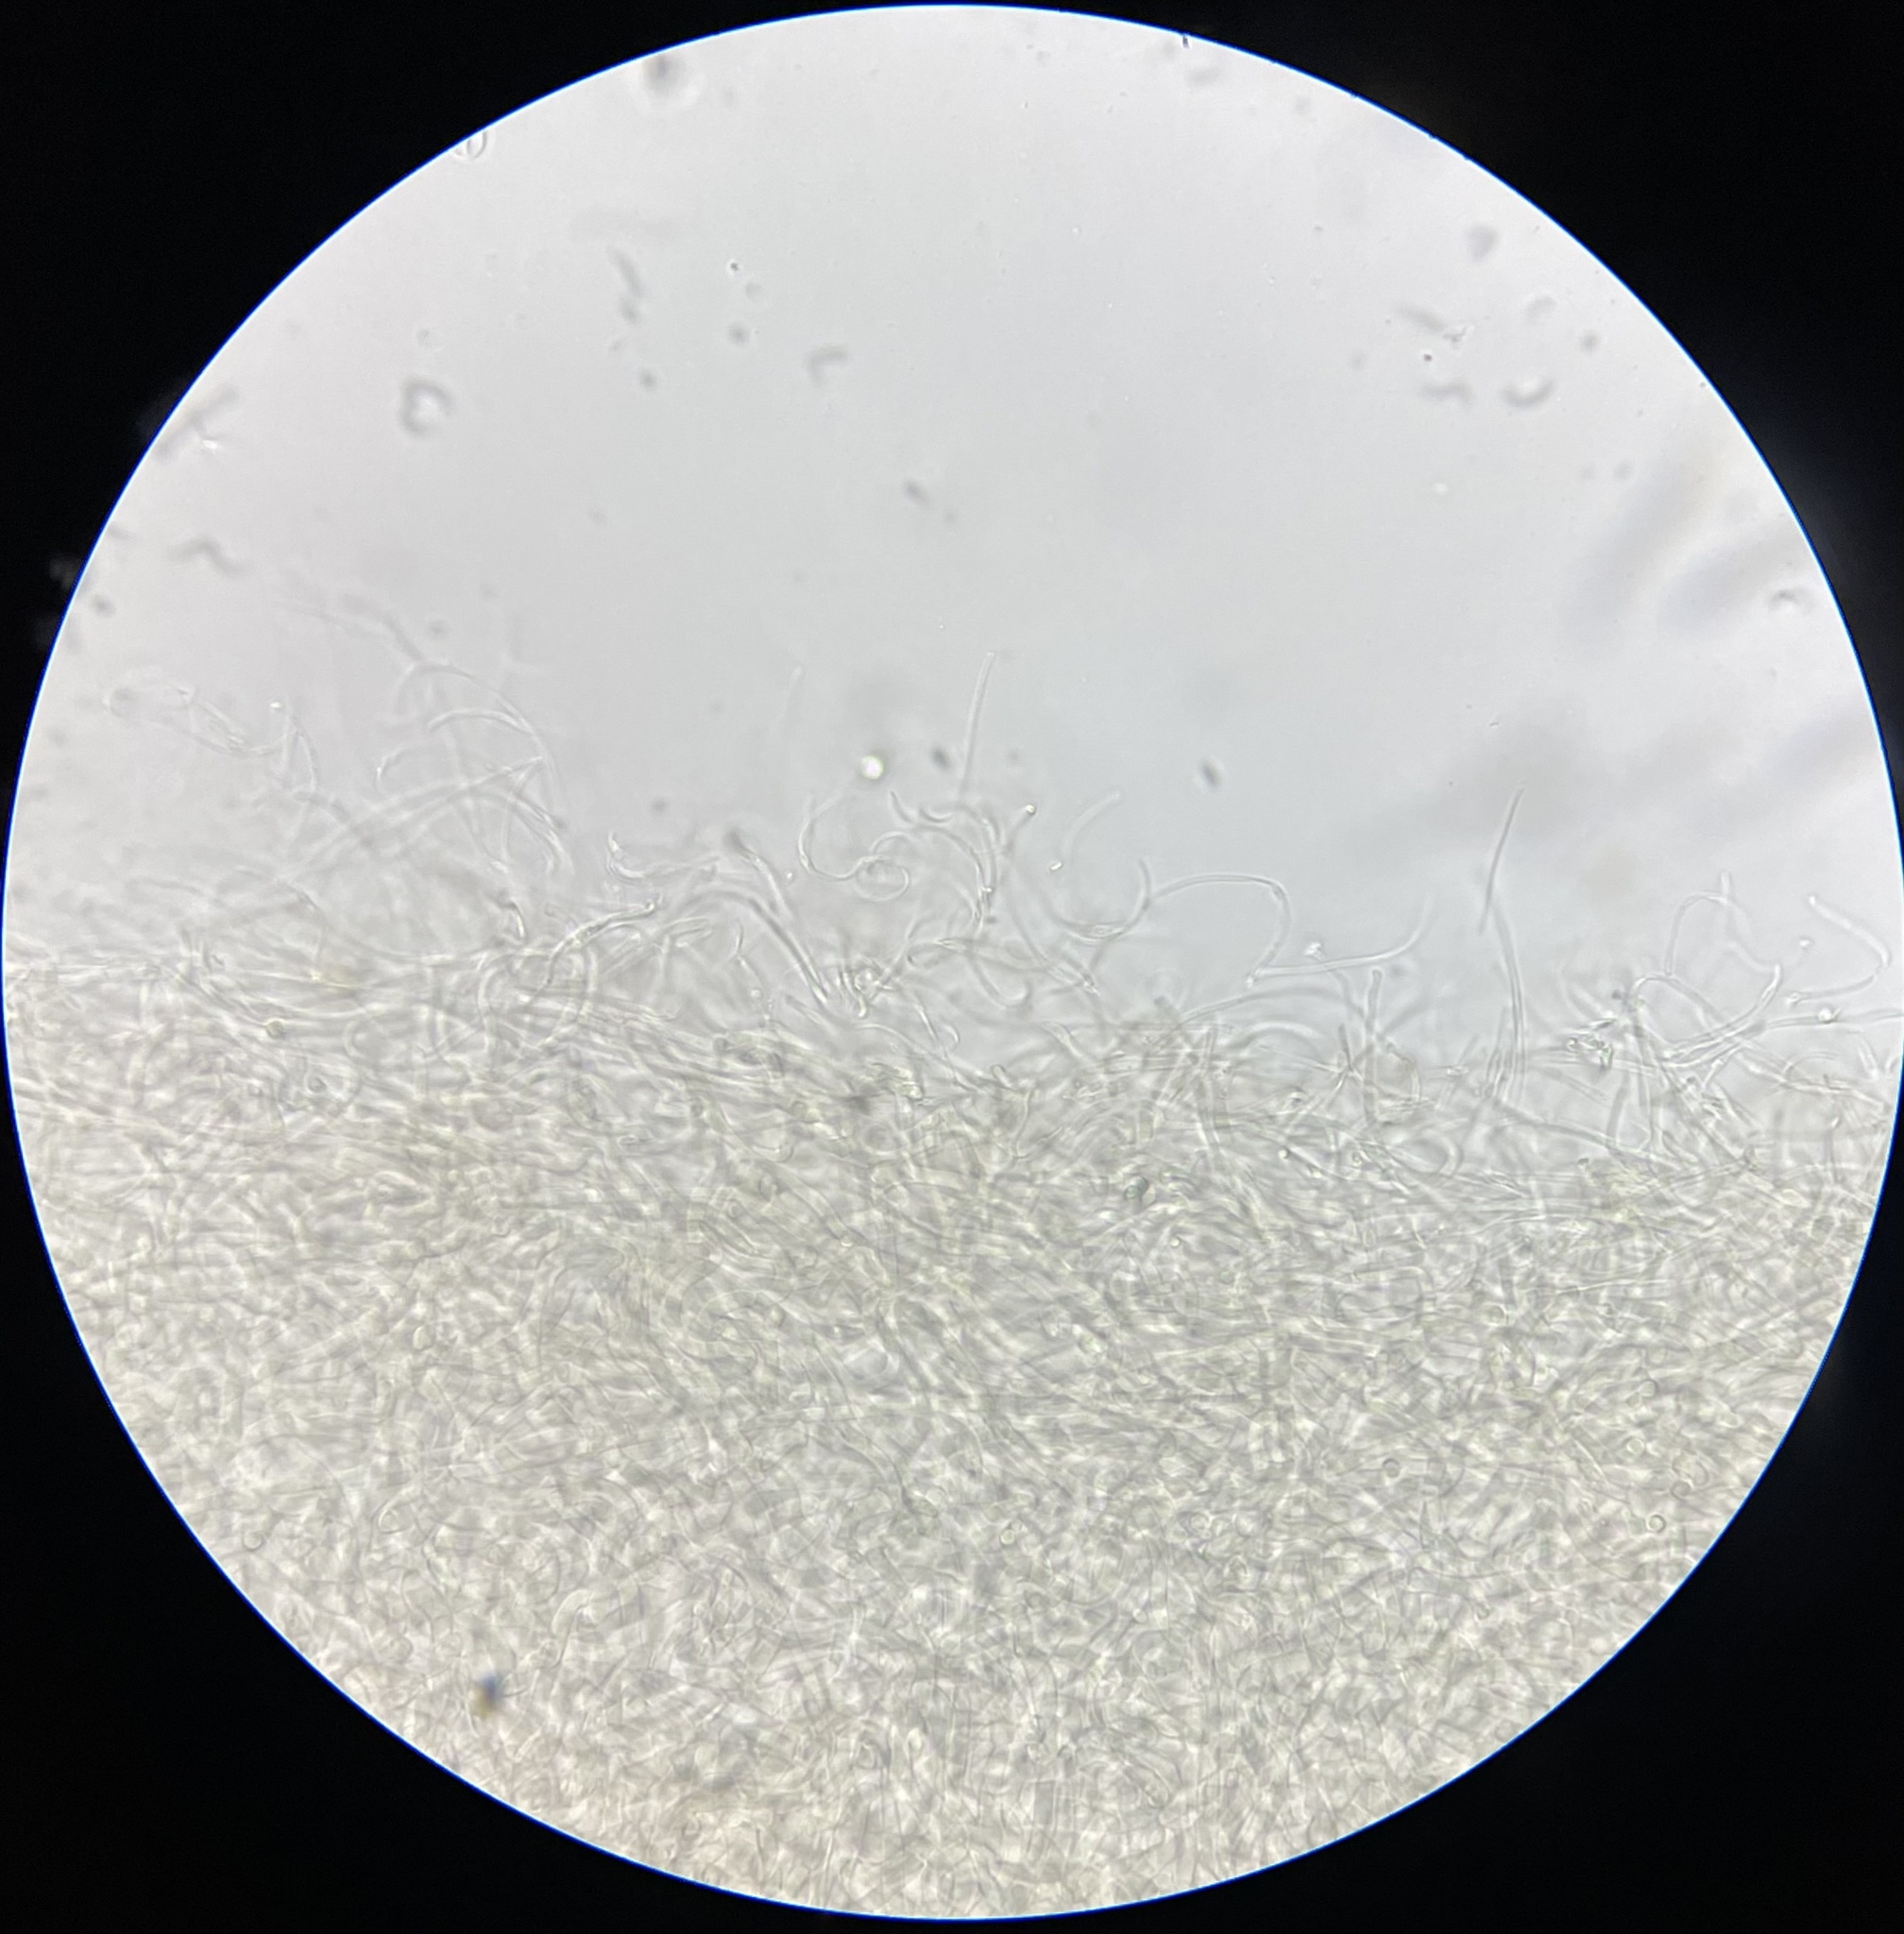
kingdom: Fungi
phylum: Basidiomycota
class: Agaricomycetes
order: Agaricales
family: Hygrophoraceae
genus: Cuphophyllus
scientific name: Cuphophyllus pratensis
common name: Meadow waxcap
